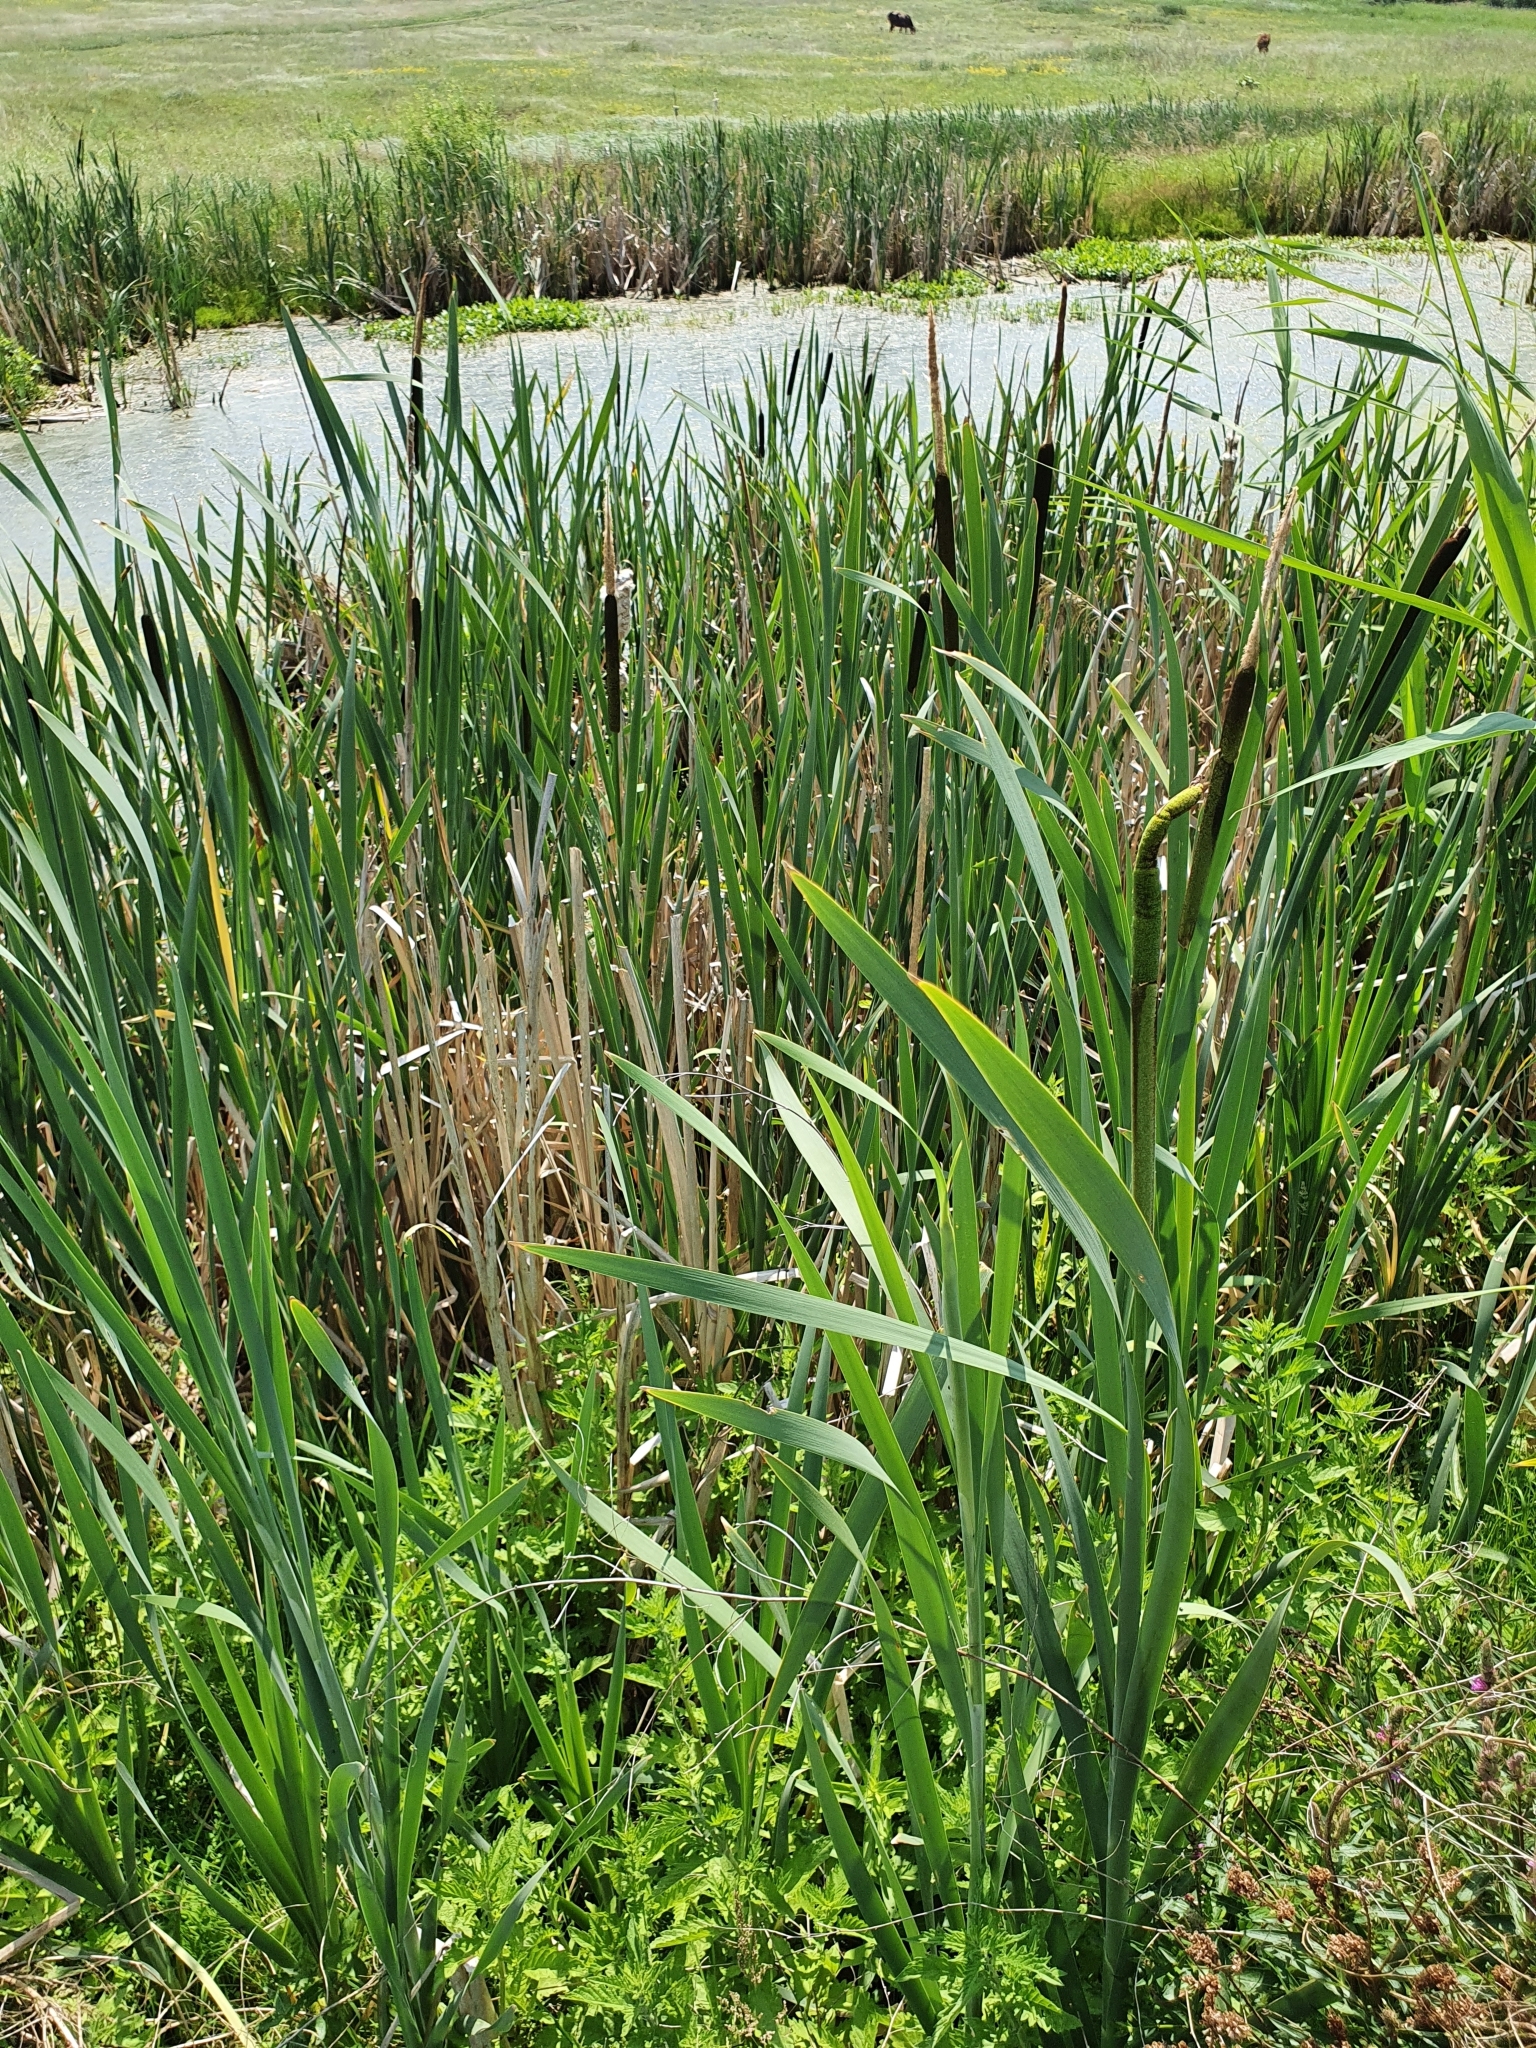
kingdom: Plantae
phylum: Tracheophyta
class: Liliopsida
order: Poales
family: Typhaceae
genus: Typha
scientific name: Typha latifolia
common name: Broadleaf cattail
